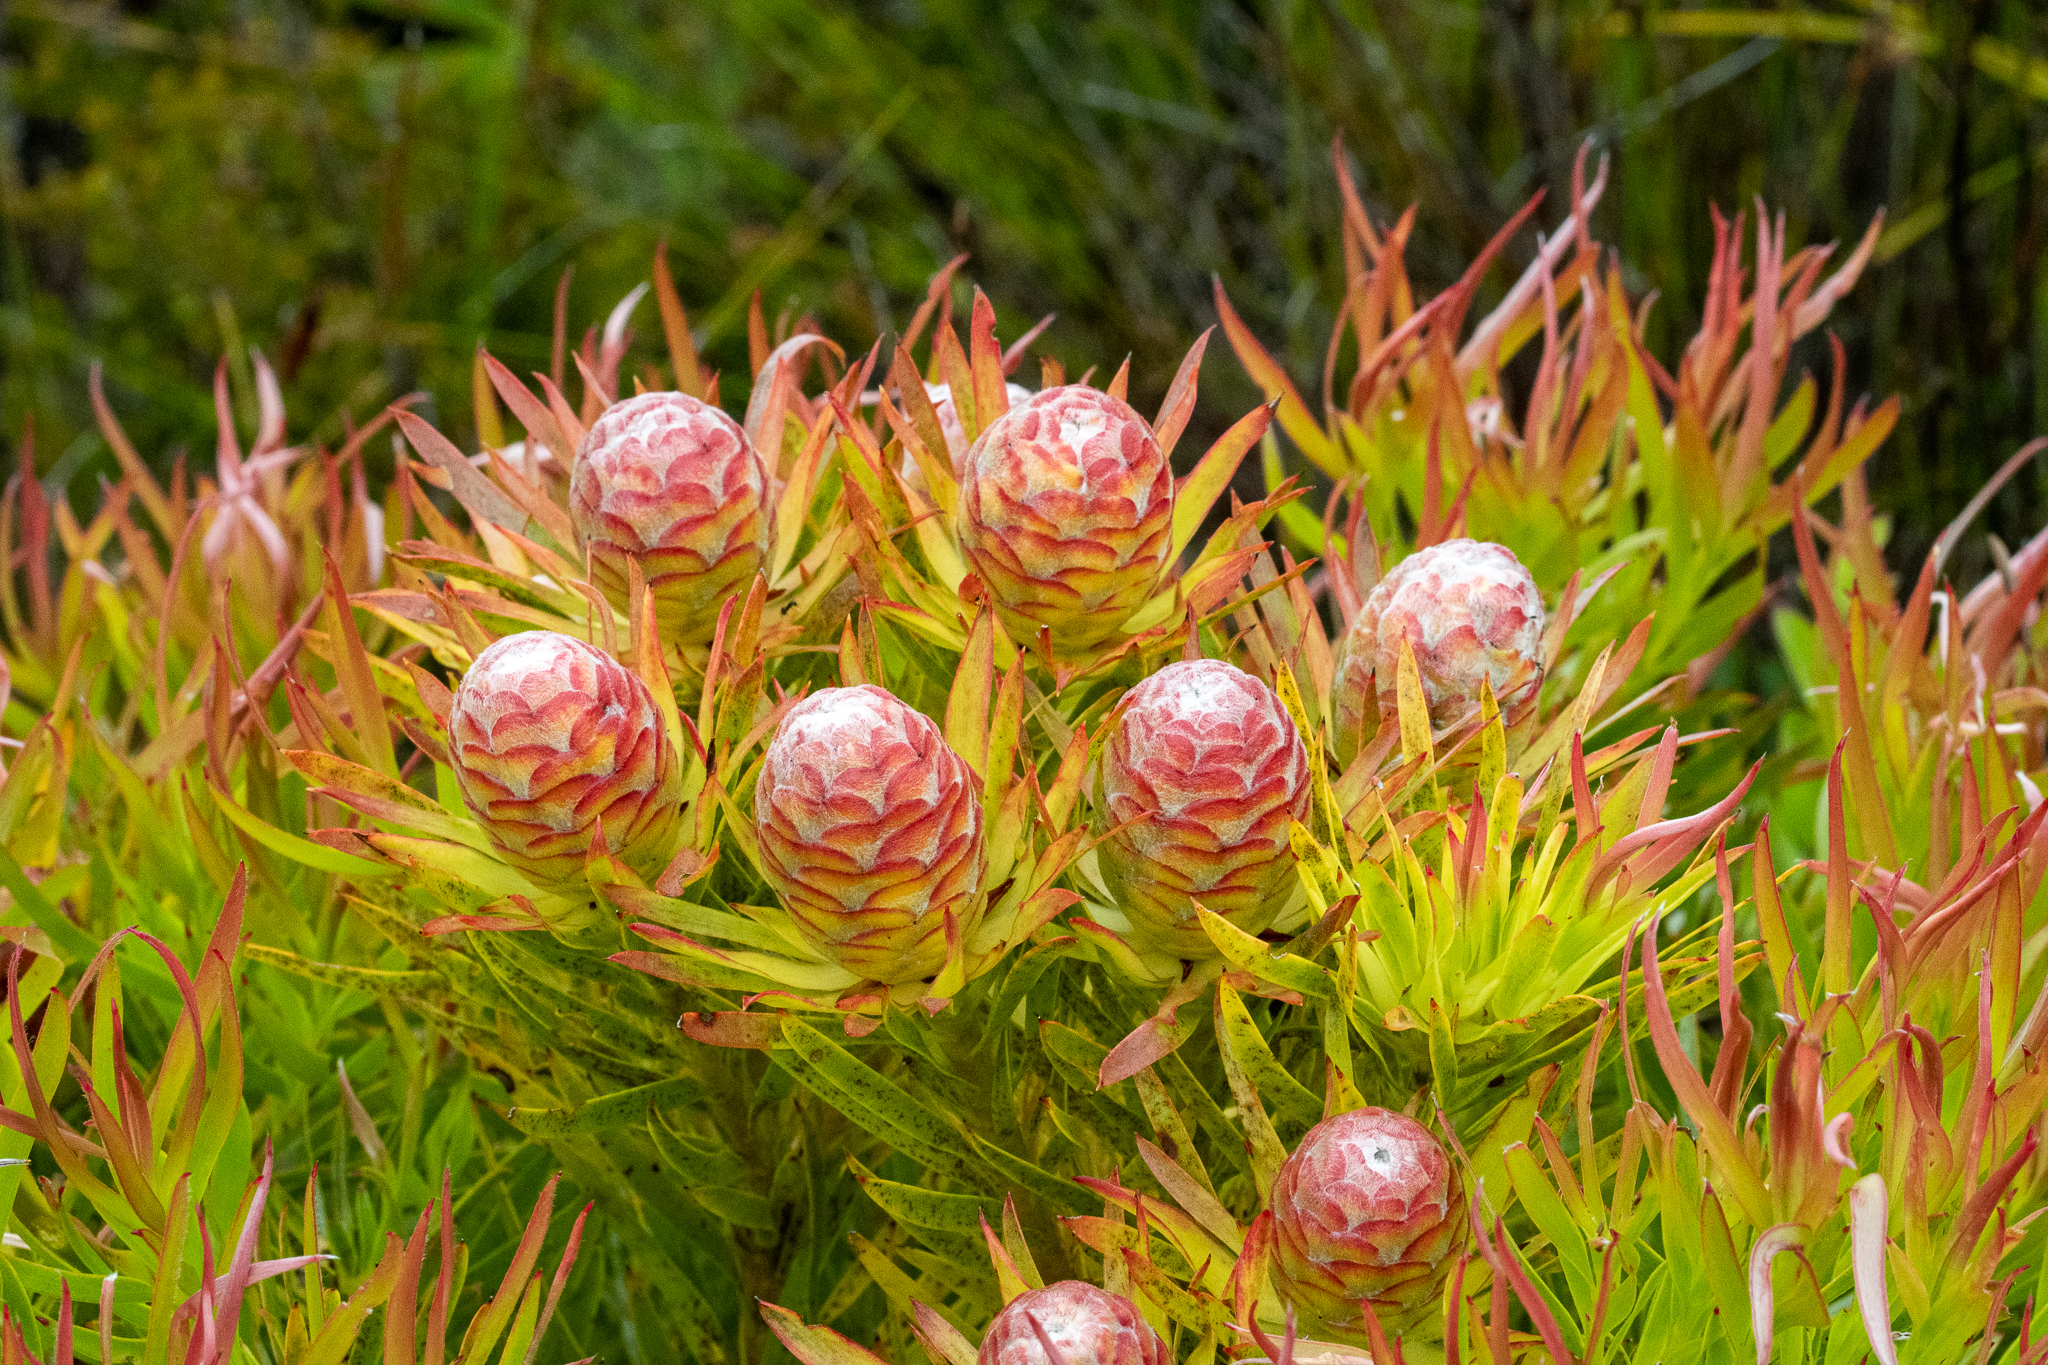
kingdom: Plantae
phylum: Tracheophyta
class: Magnoliopsida
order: Proteales
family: Proteaceae
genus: Leucadendron
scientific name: Leucadendron xanthoconus
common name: Sickle-leaf conebush
